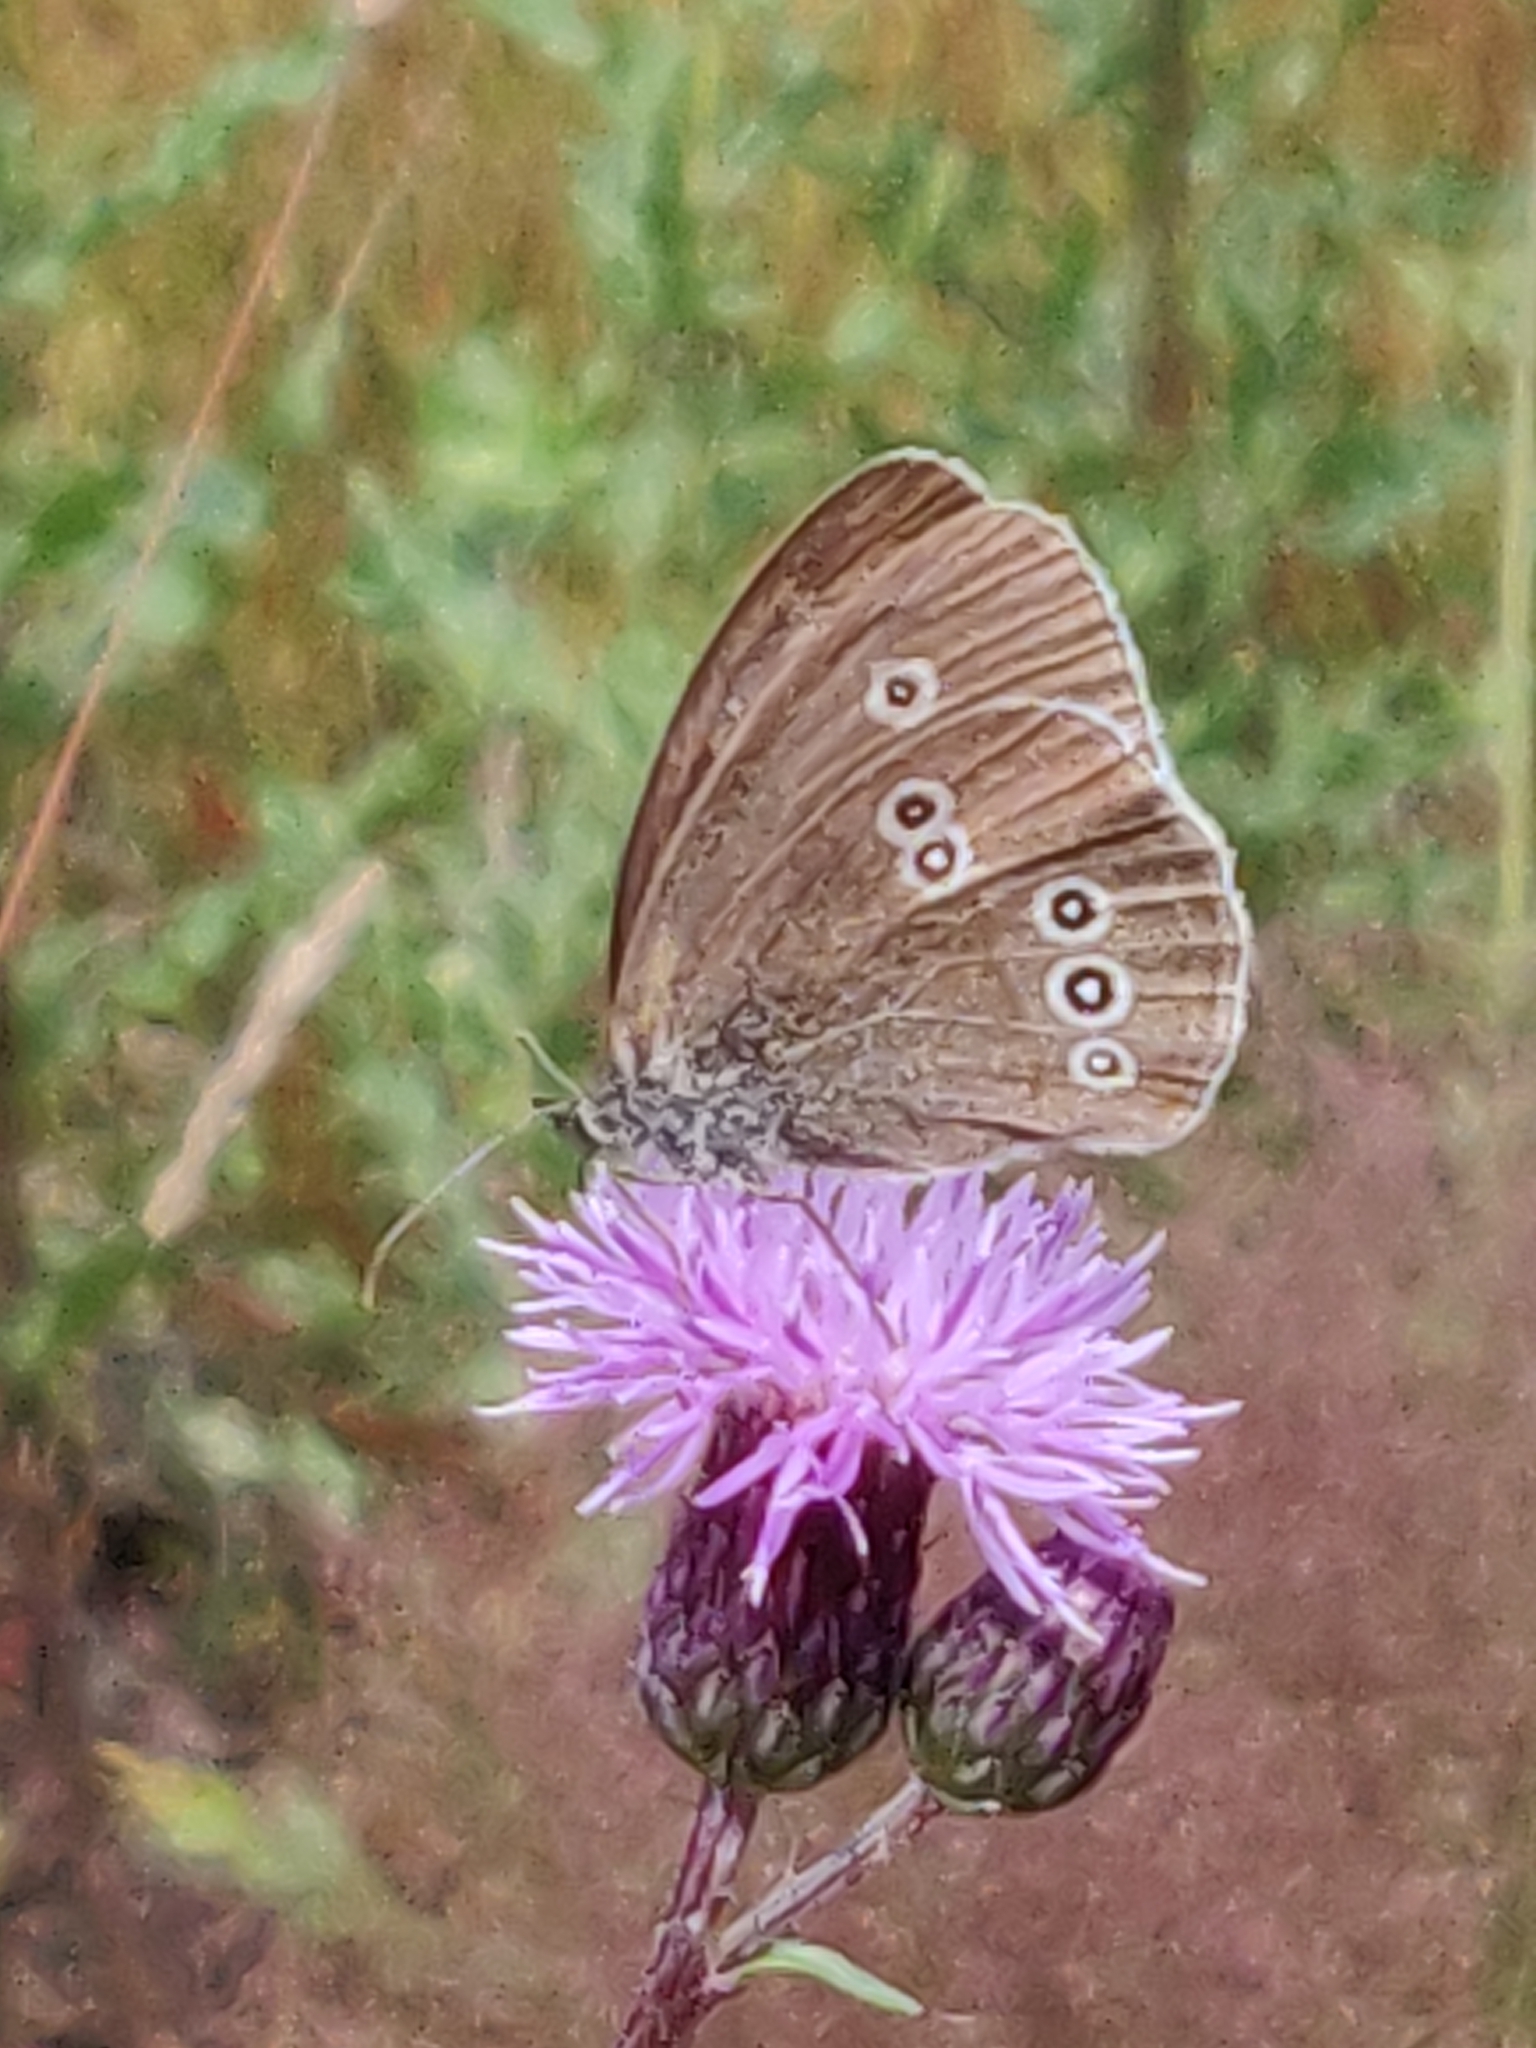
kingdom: Animalia
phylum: Arthropoda
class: Insecta
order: Lepidoptera
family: Nymphalidae
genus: Aphantopus
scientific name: Aphantopus hyperantus
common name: Ringlet
